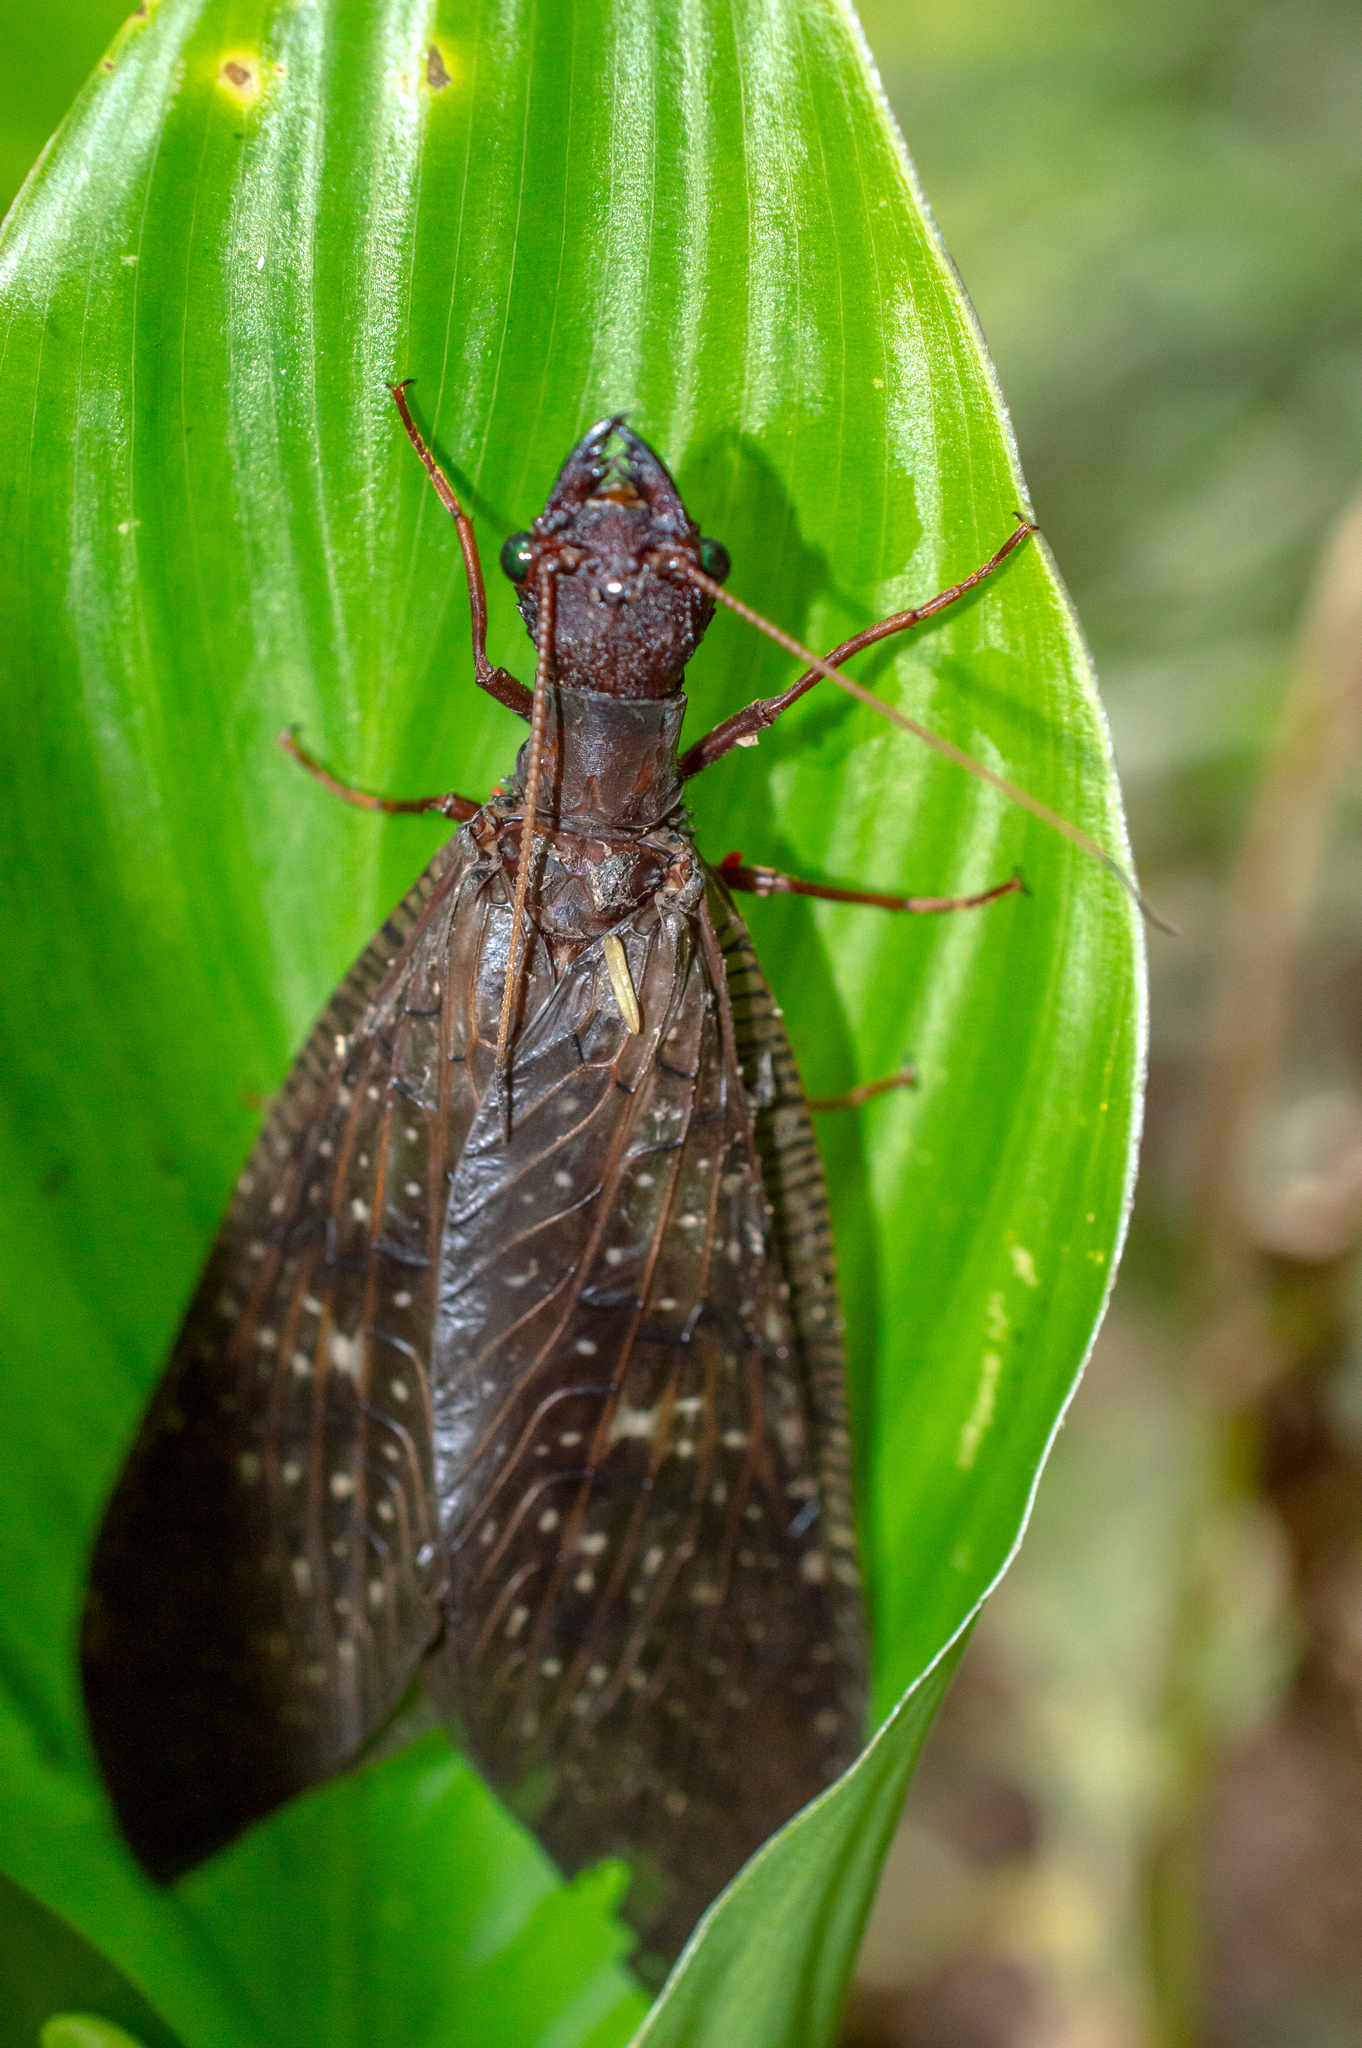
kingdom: Animalia
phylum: Arthropoda
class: Insecta
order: Megaloptera
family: Corydalidae
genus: Corydalus
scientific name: Corydalus hecate
